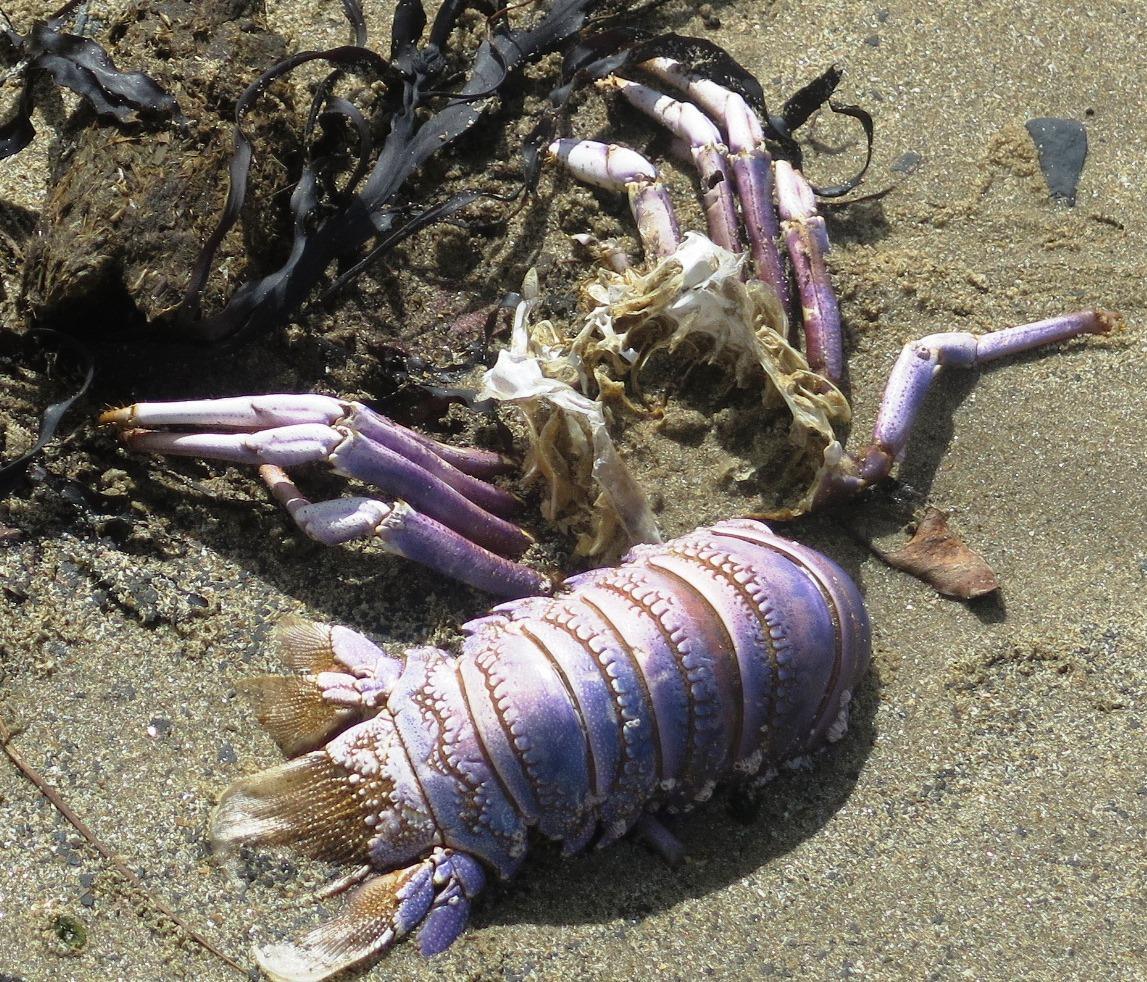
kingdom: Animalia
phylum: Arthropoda
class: Malacostraca
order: Decapoda
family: Palinuridae
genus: Panulirus
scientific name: Panulirus homarus
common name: Scalloped spiny lobster
